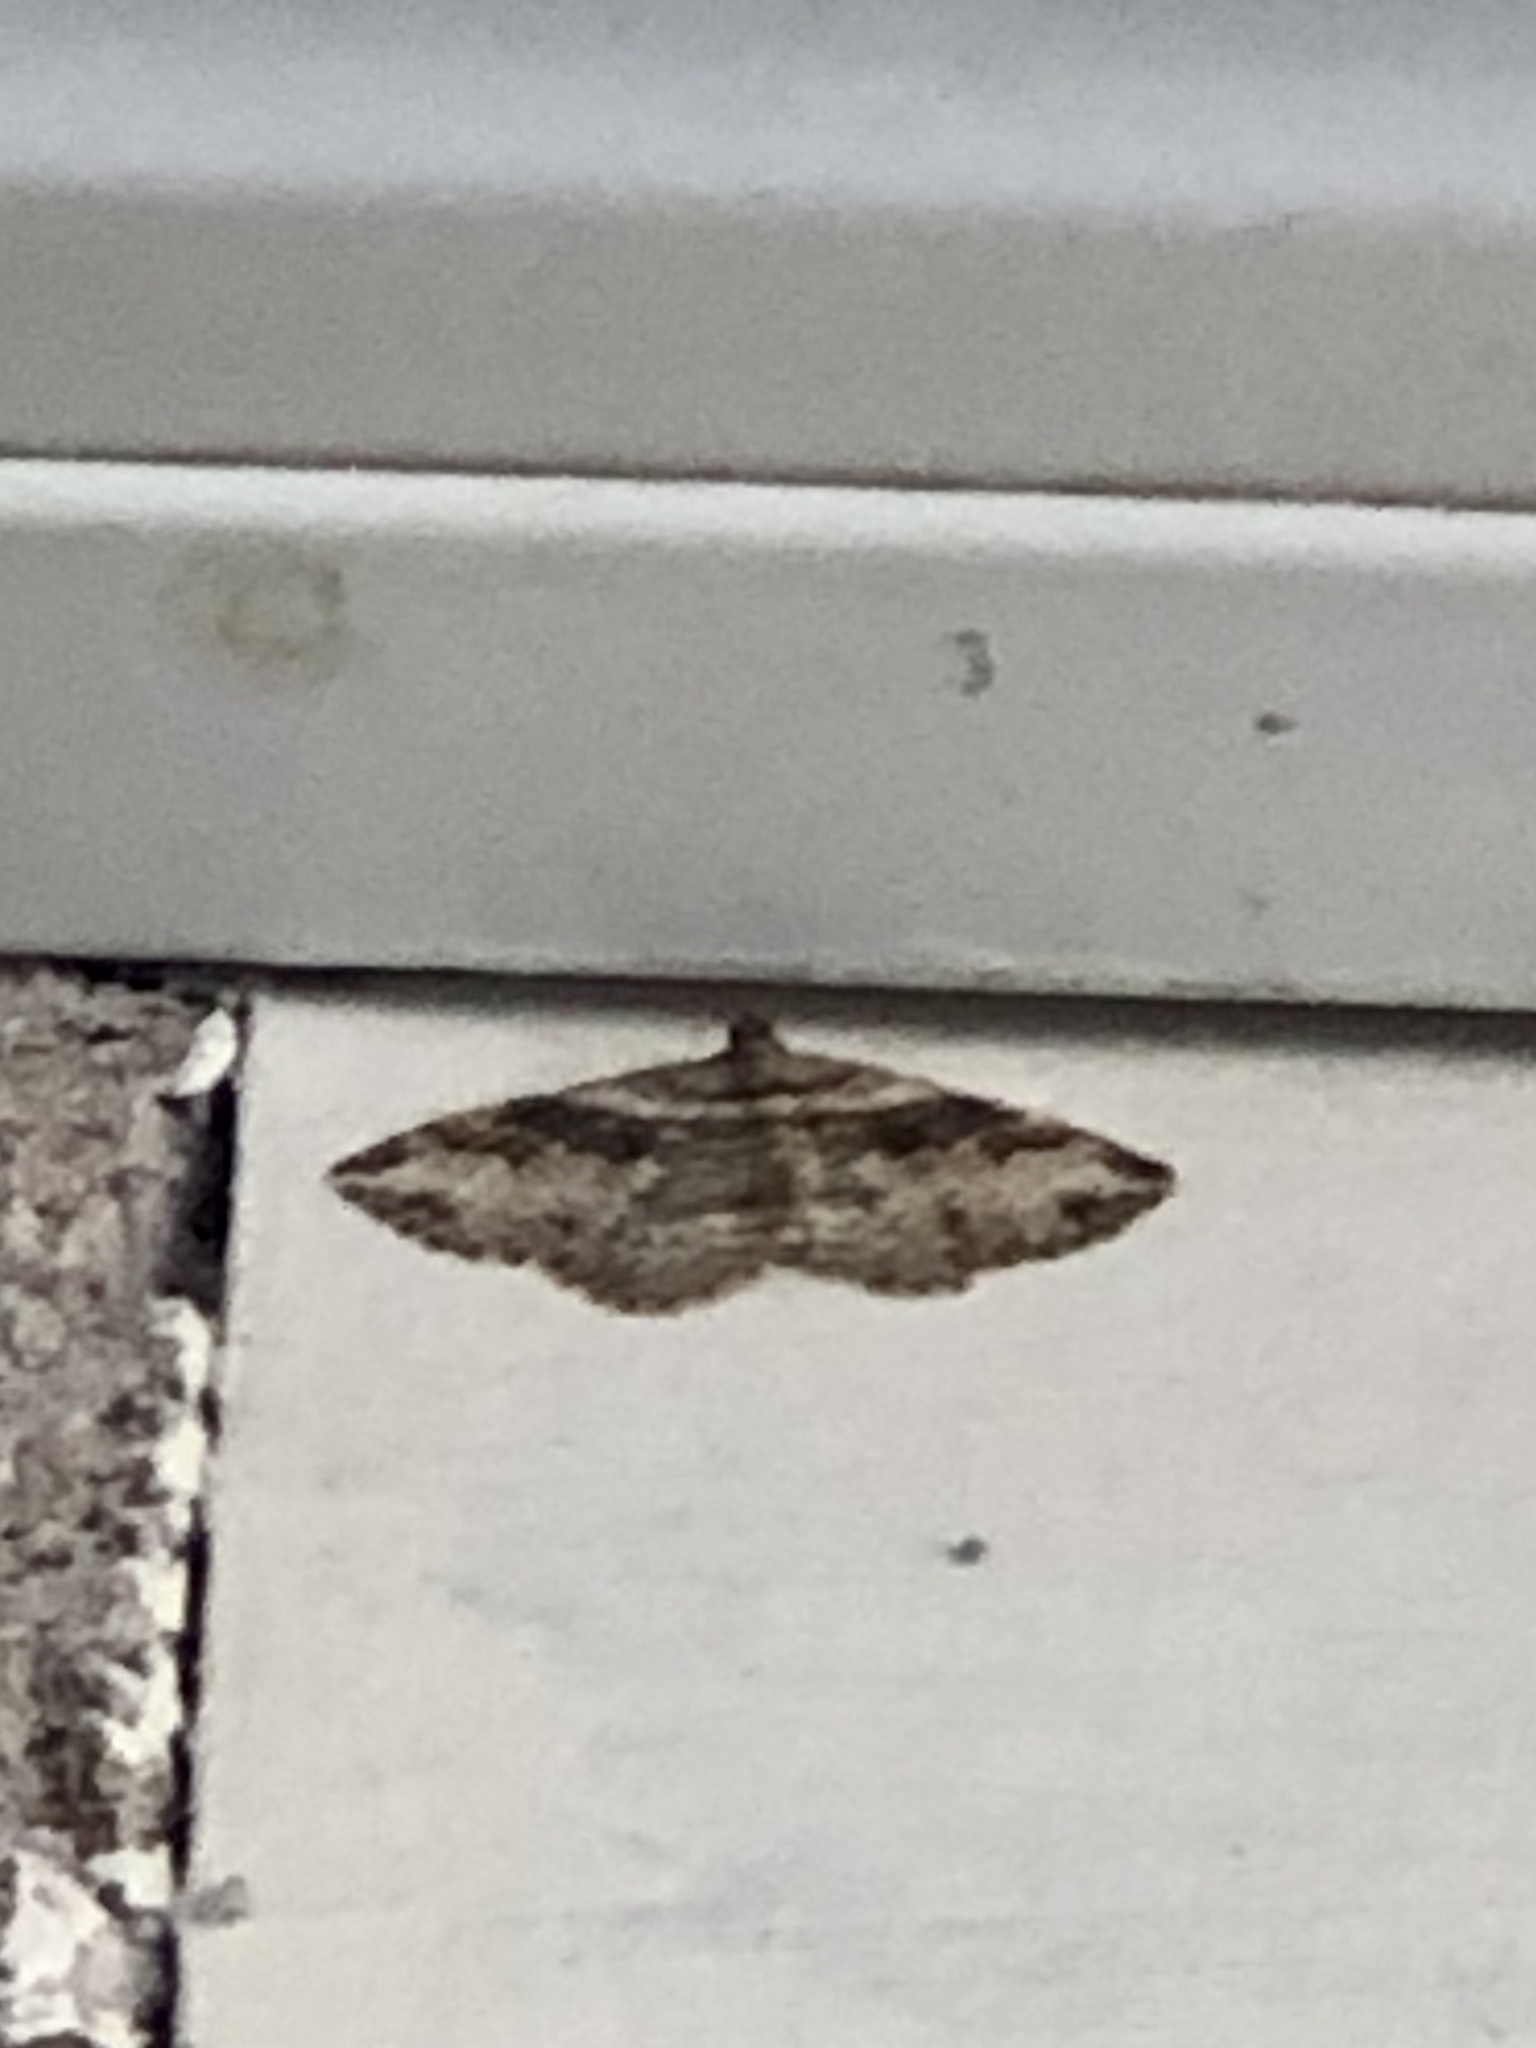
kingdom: Animalia
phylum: Arthropoda
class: Insecta
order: Lepidoptera
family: Geometridae
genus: Costaconvexa
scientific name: Costaconvexa centrostrigaria
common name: Bent-line carpet
